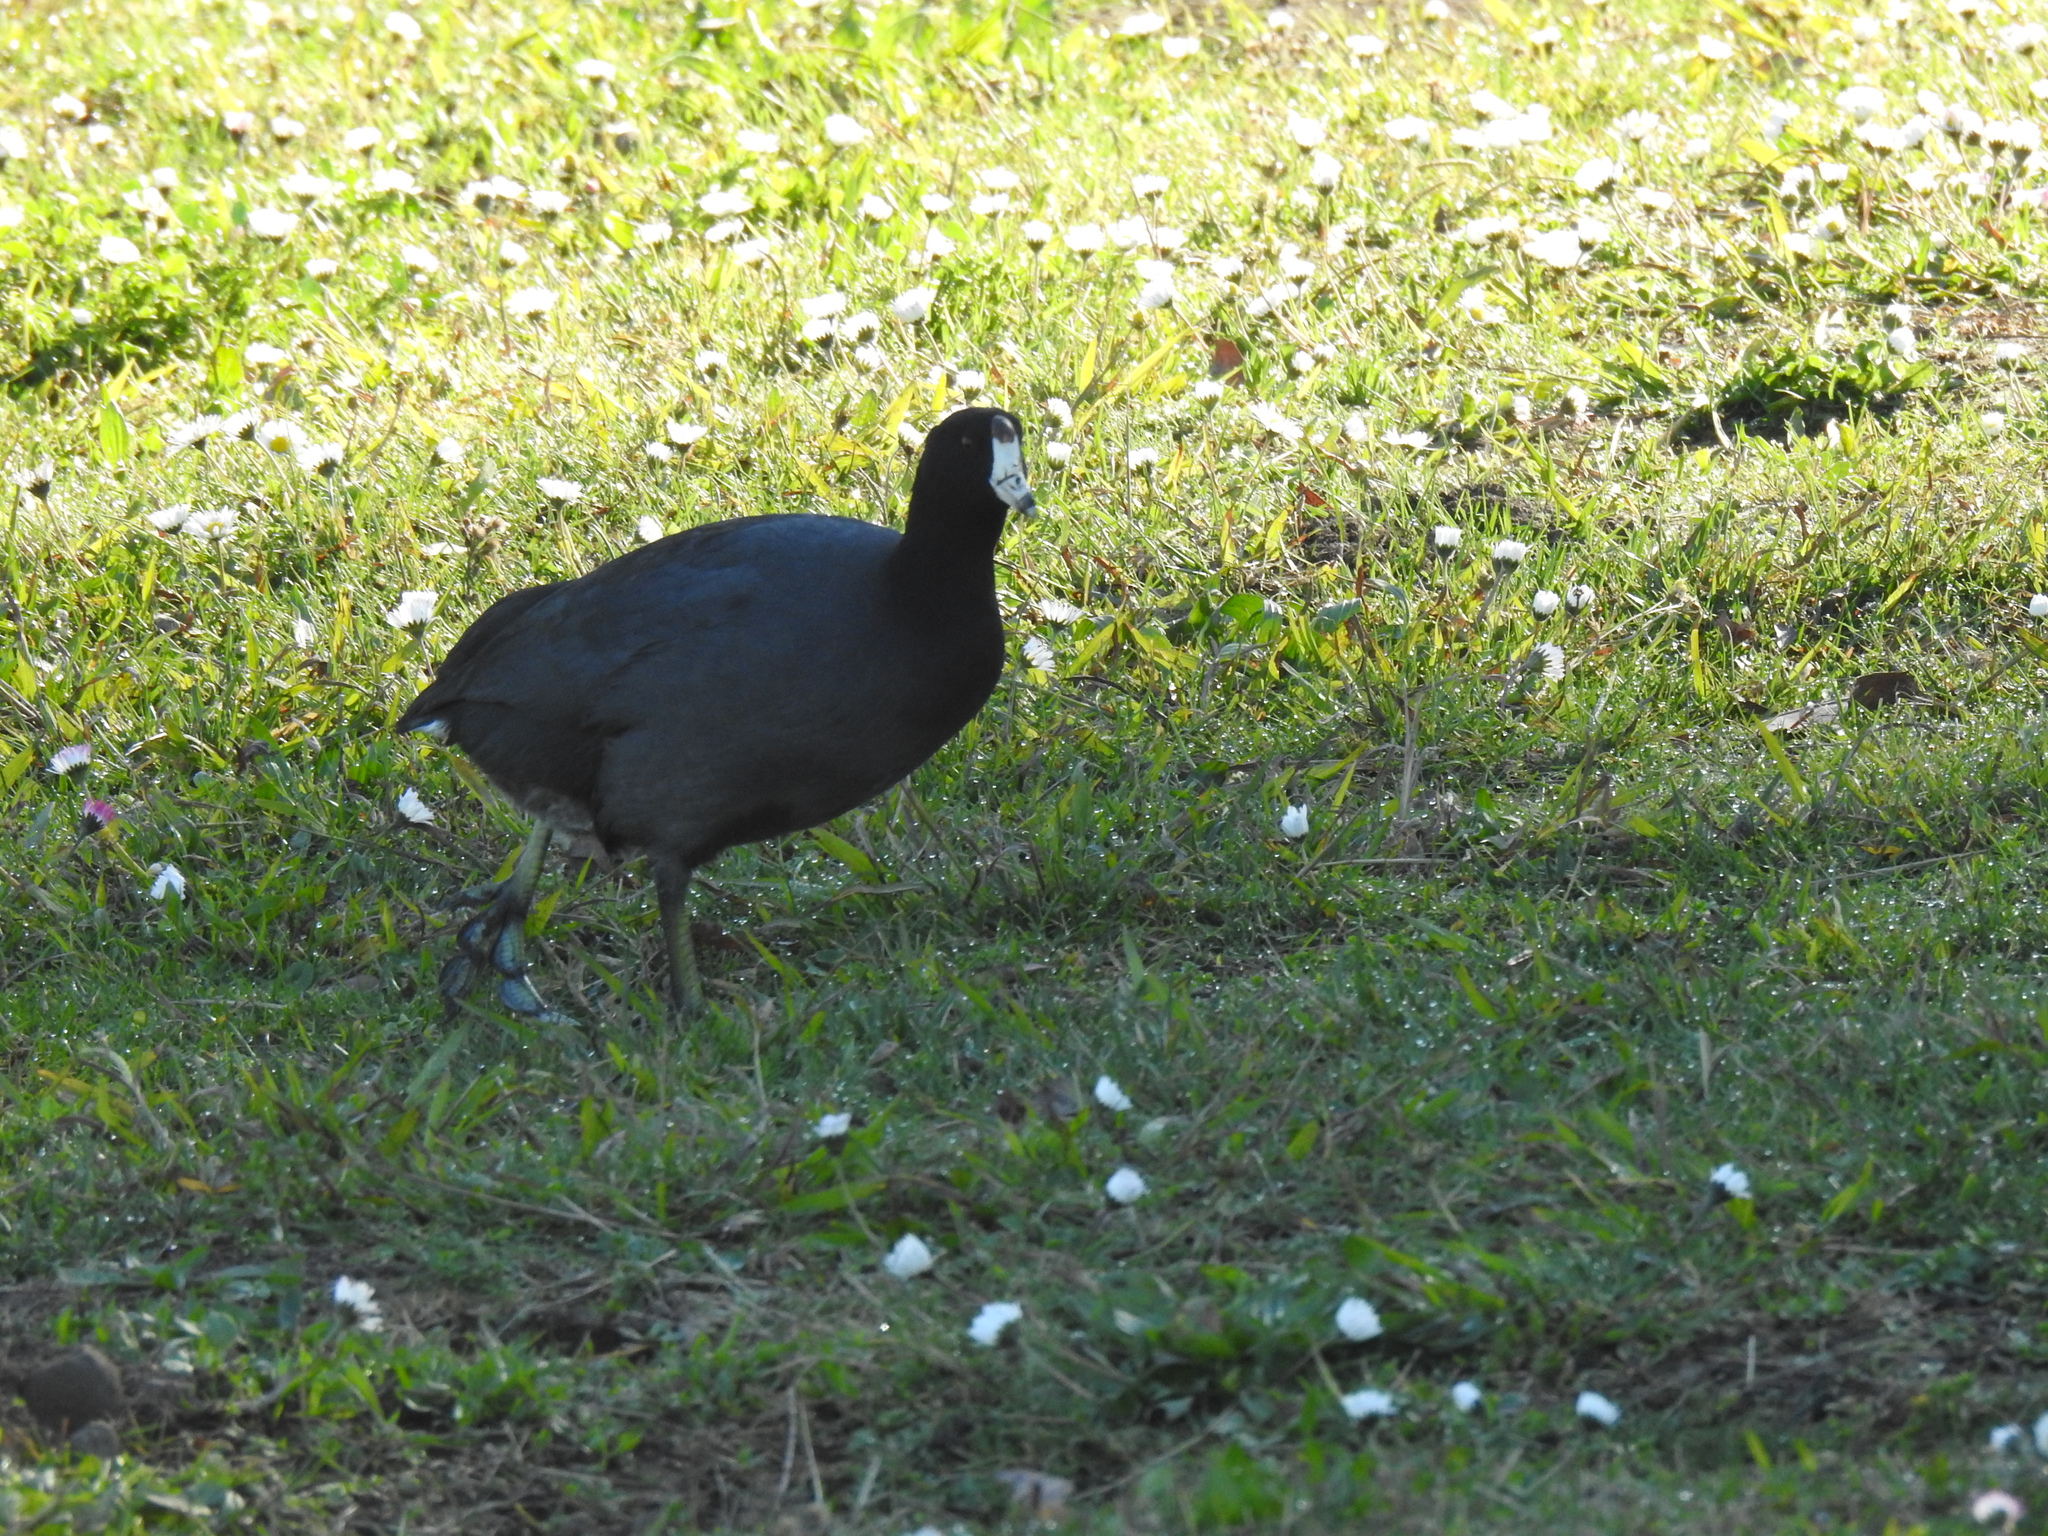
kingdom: Animalia
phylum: Chordata
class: Aves
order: Gruiformes
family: Rallidae
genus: Fulica
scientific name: Fulica americana
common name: American coot
